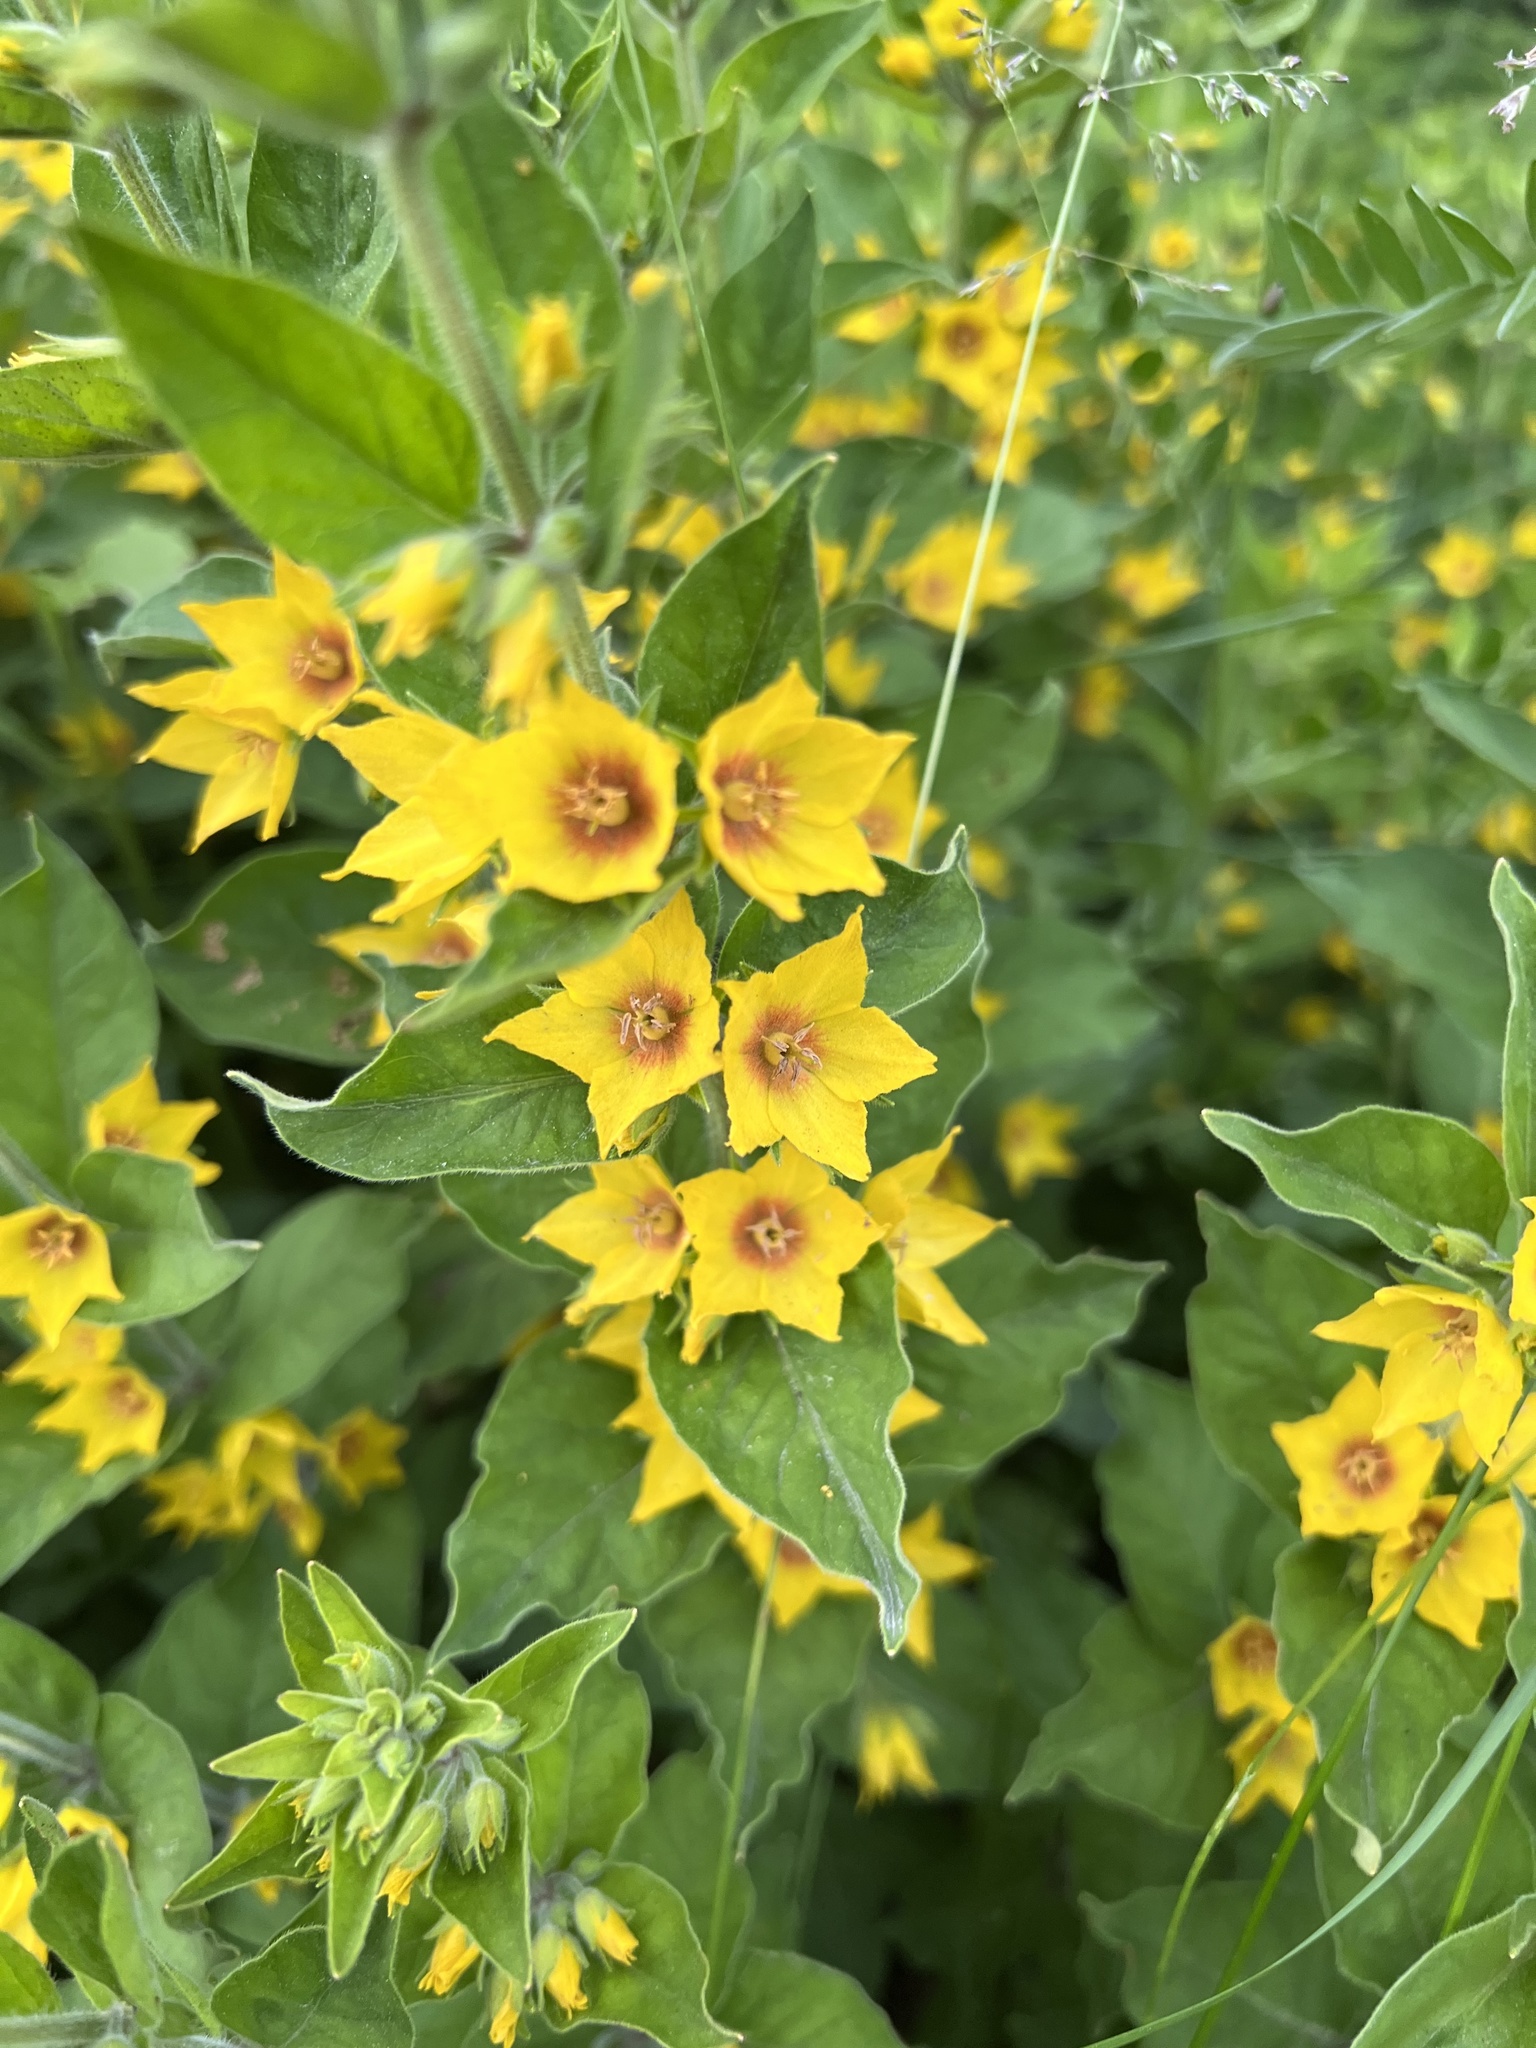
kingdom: Plantae
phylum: Tracheophyta
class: Magnoliopsida
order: Ericales
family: Primulaceae
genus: Lysimachia
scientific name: Lysimachia punctata
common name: Dotted loosestrife
